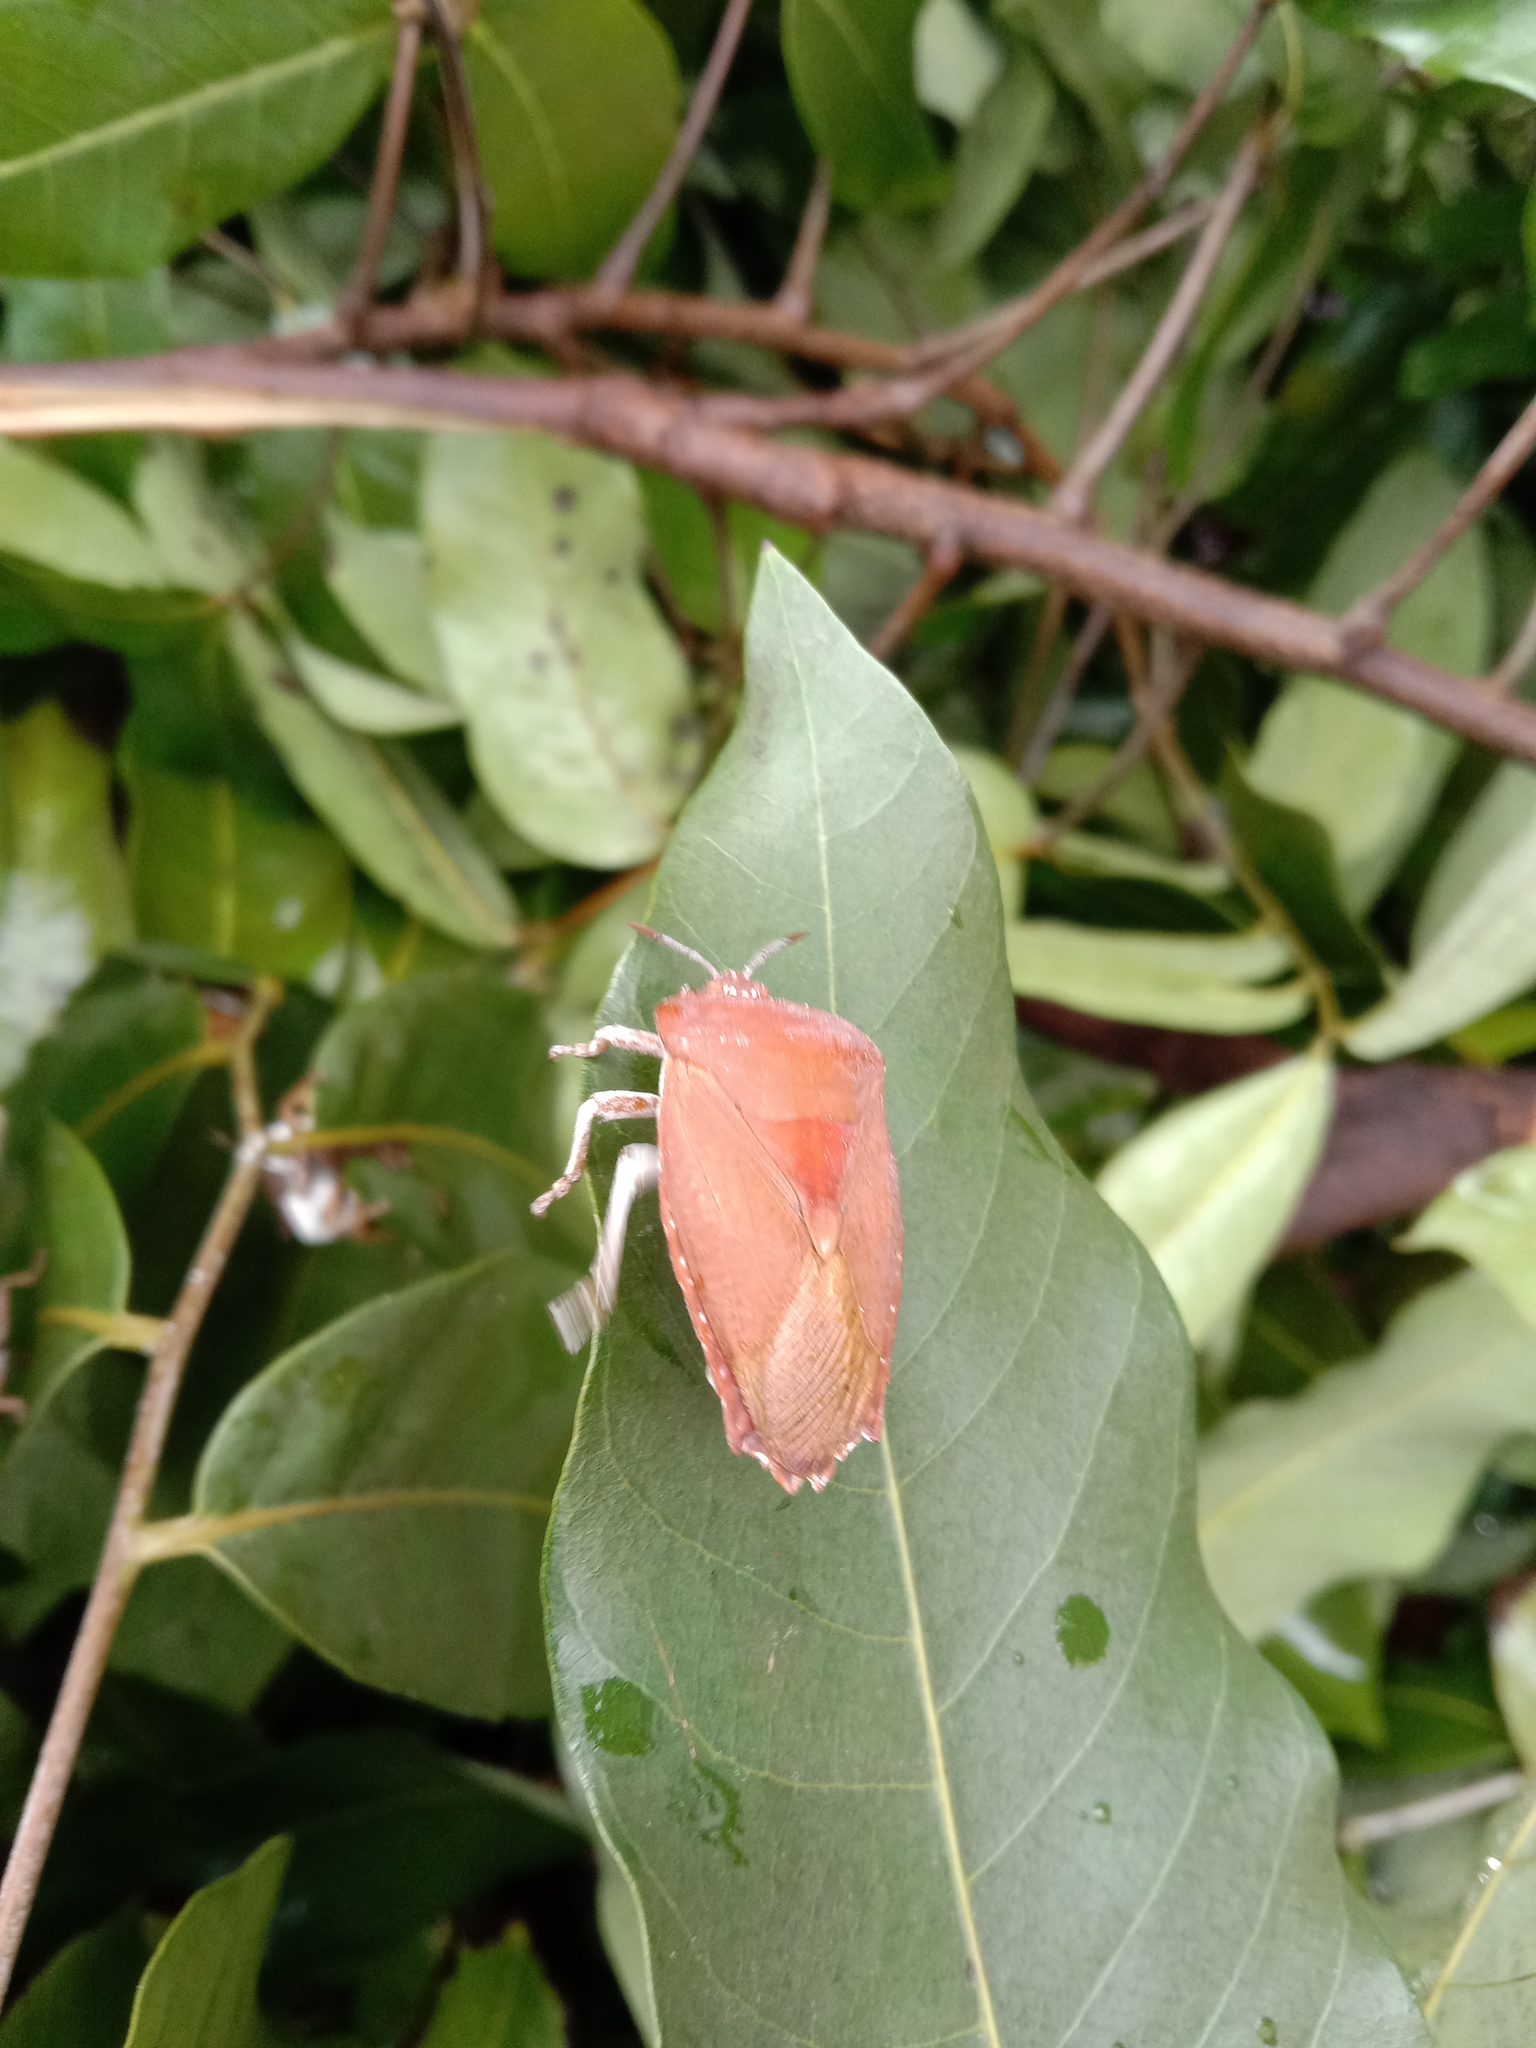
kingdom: Animalia
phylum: Arthropoda
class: Insecta
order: Hemiptera
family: Tessaratomidae
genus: Tessaratoma
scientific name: Tessaratoma papillosa
